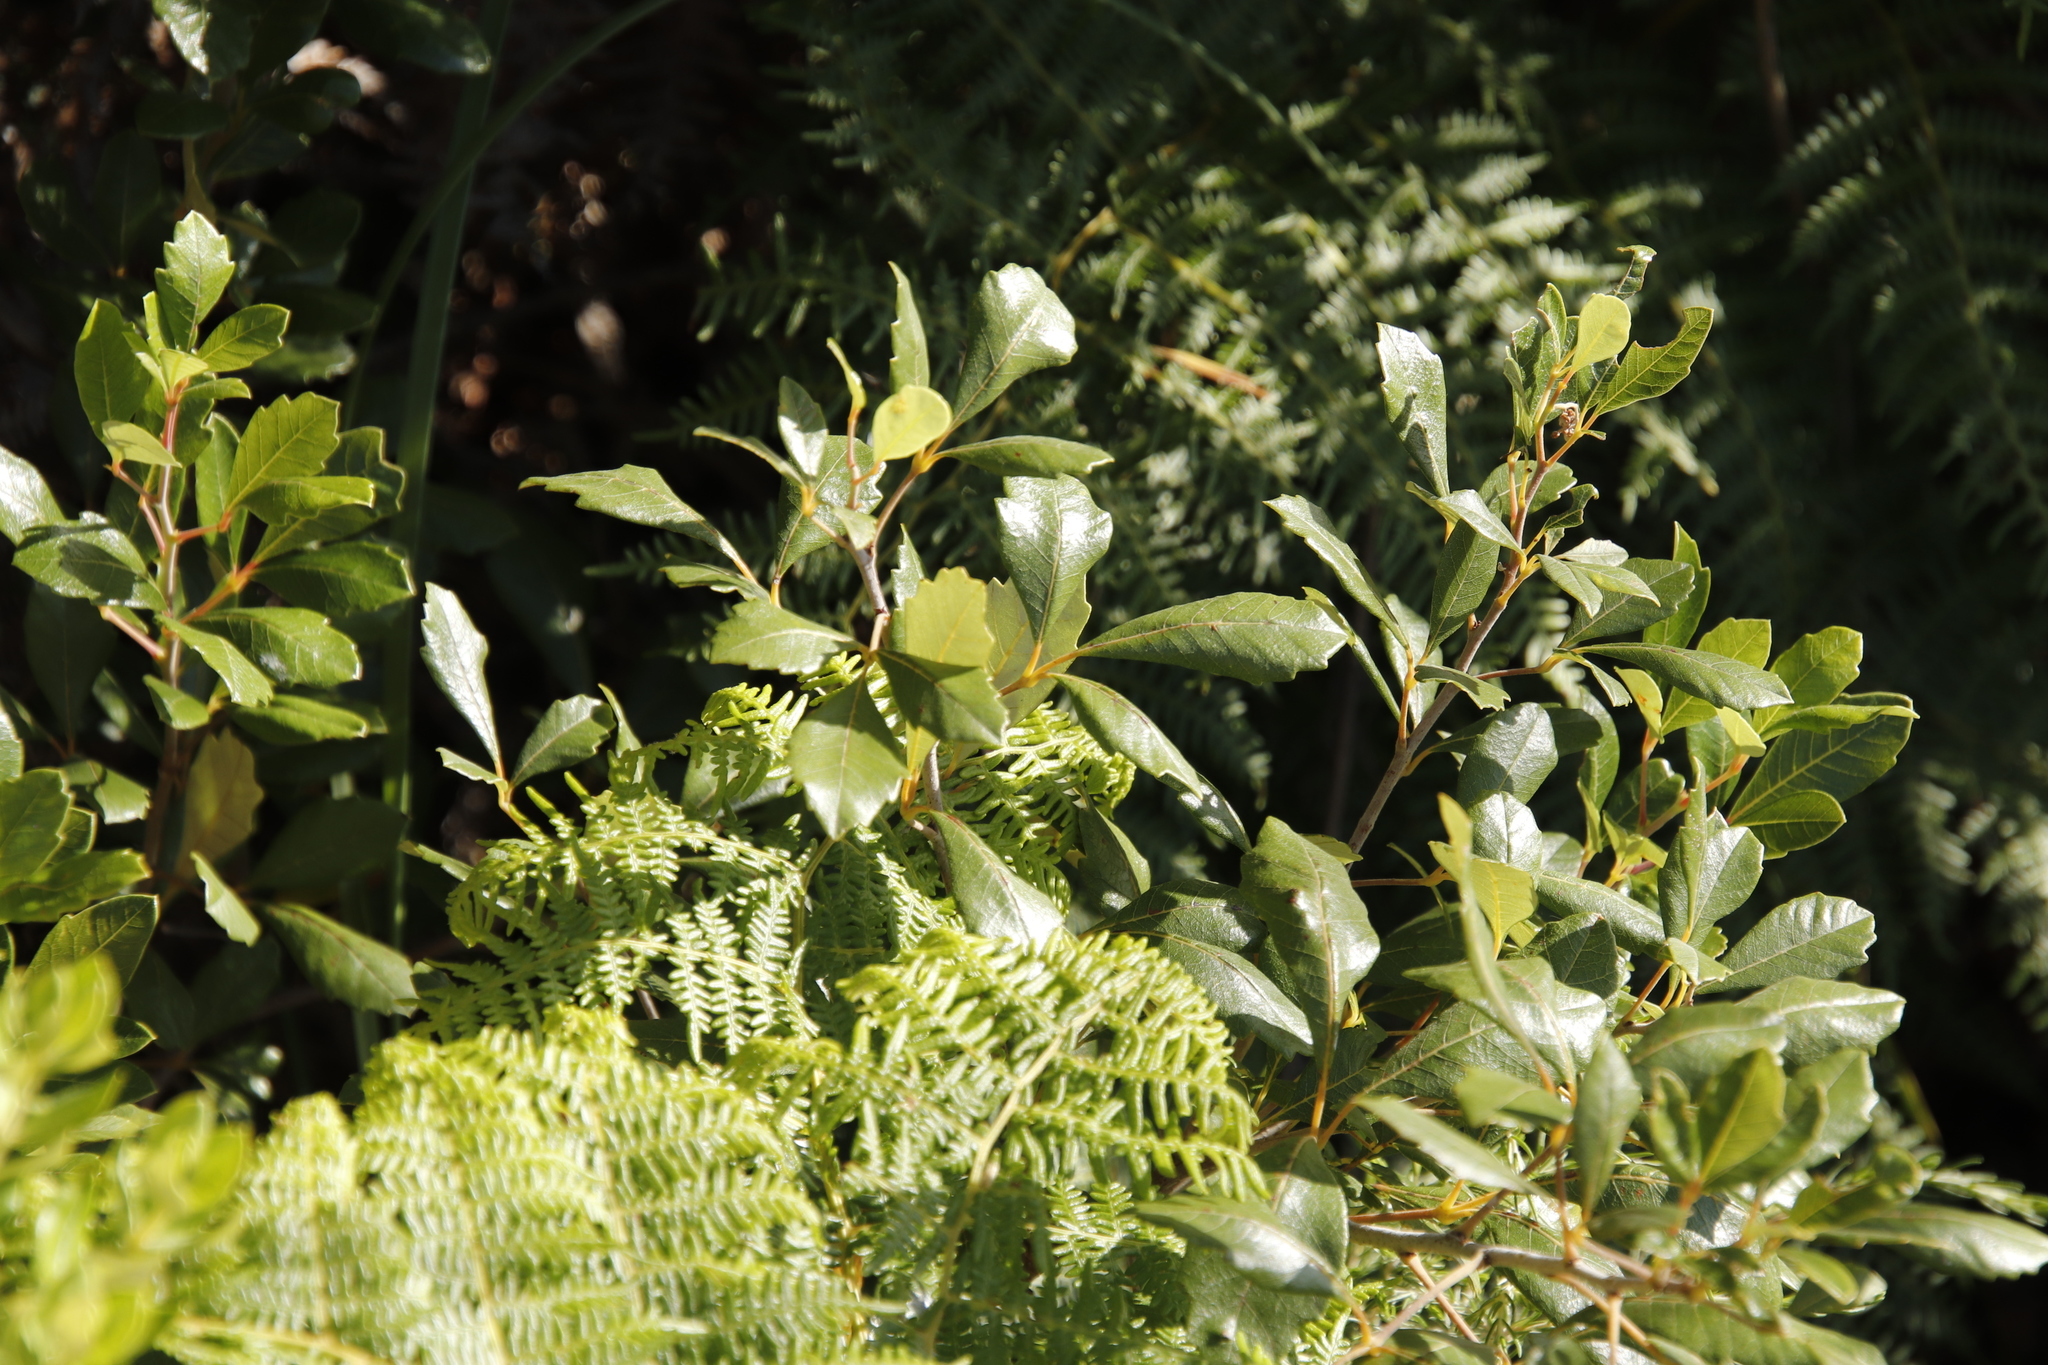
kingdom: Plantae
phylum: Tracheophyta
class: Magnoliopsida
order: Sapindales
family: Anacardiaceae
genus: Searsia
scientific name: Searsia cuneifolia
